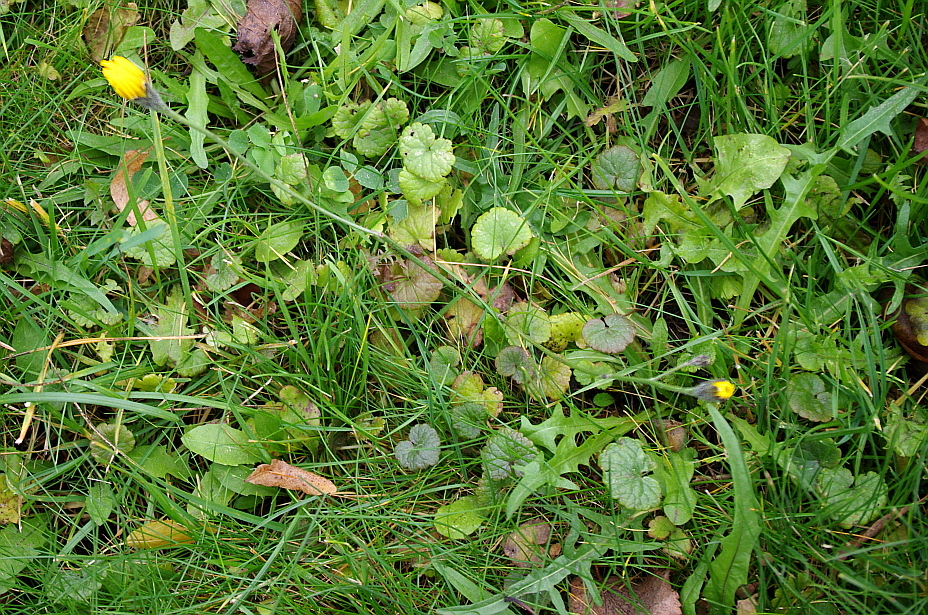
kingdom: Plantae
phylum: Tracheophyta
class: Magnoliopsida
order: Asterales
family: Asteraceae
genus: Scorzoneroides
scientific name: Scorzoneroides autumnalis
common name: Autumn hawkbit
